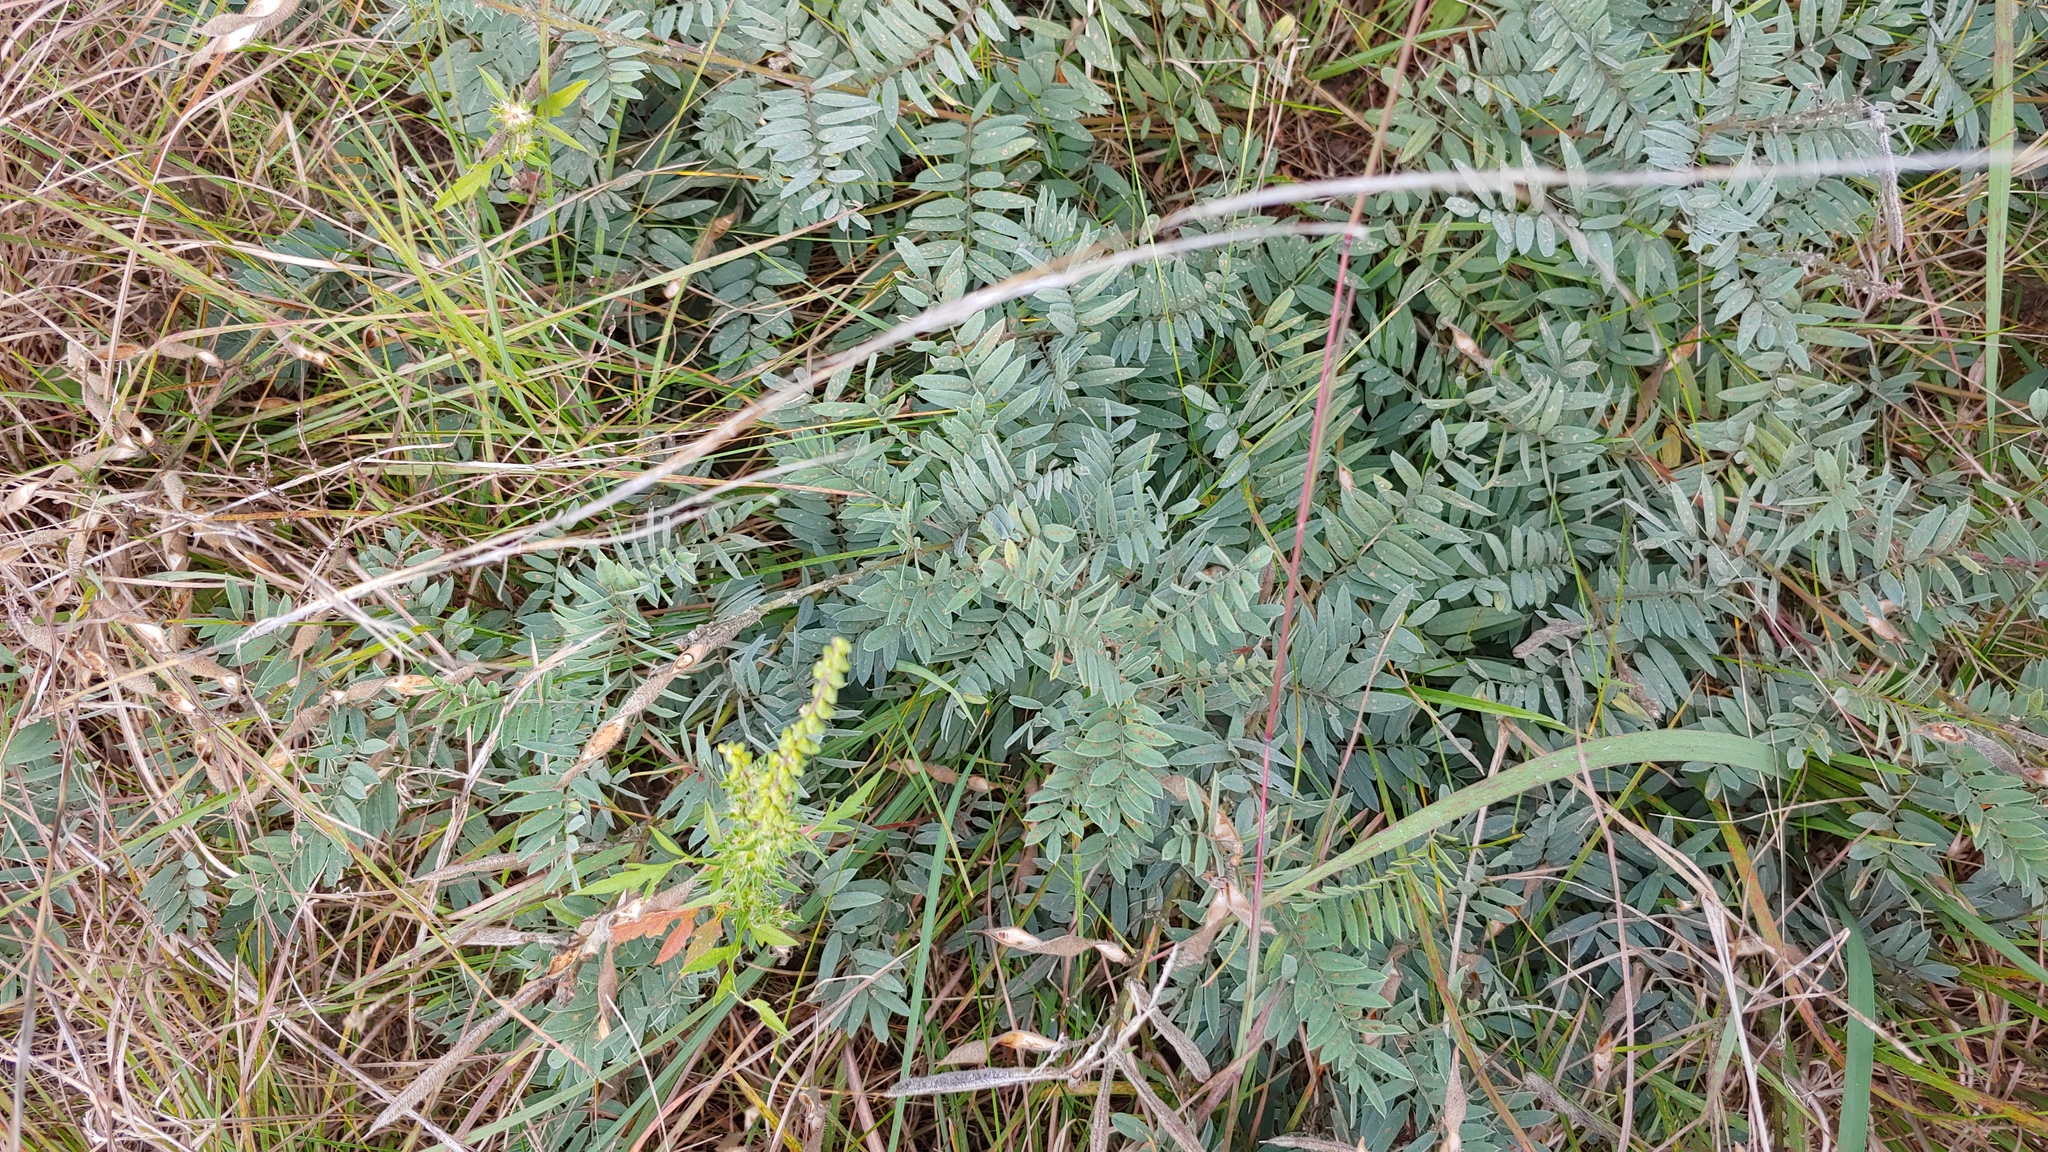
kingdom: Plantae
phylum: Tracheophyta
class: Magnoliopsida
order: Fabales
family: Fabaceae
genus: Tephrosia
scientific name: Tephrosia virginiana
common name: Rabbit-pea
